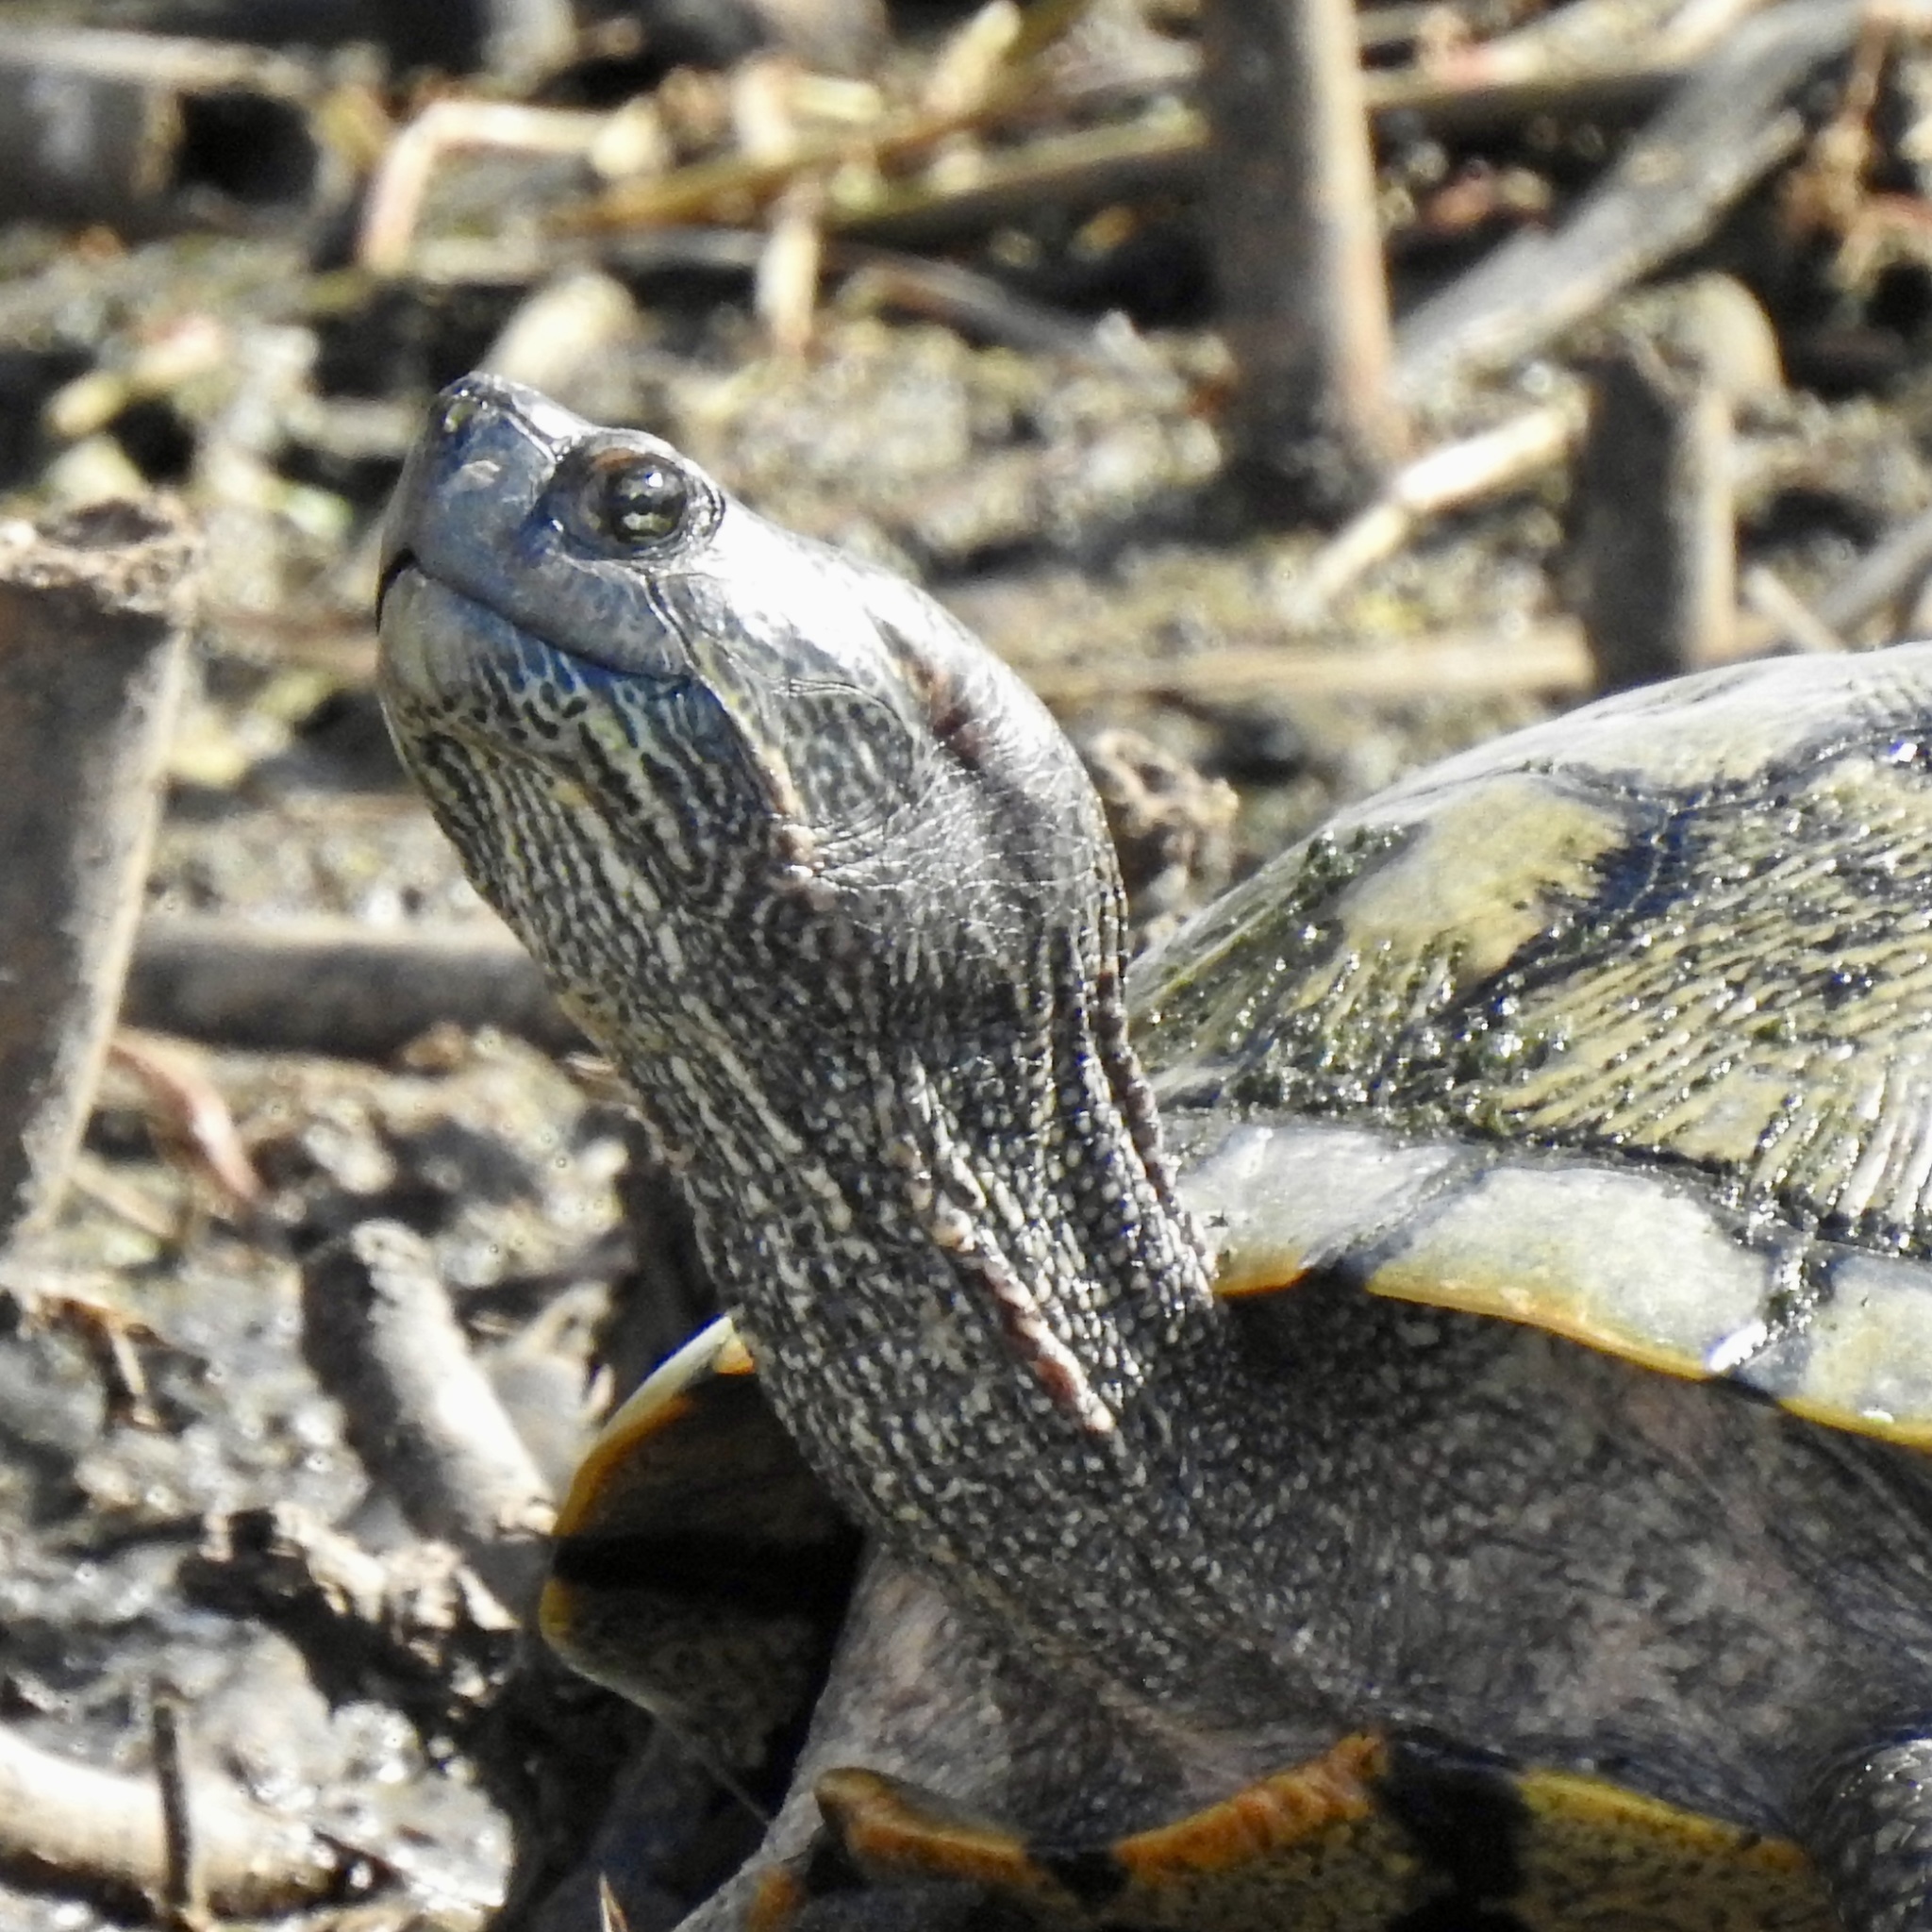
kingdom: Animalia
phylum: Chordata
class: Testudines
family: Emydidae
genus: Trachemys
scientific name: Trachemys scripta
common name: Slider
